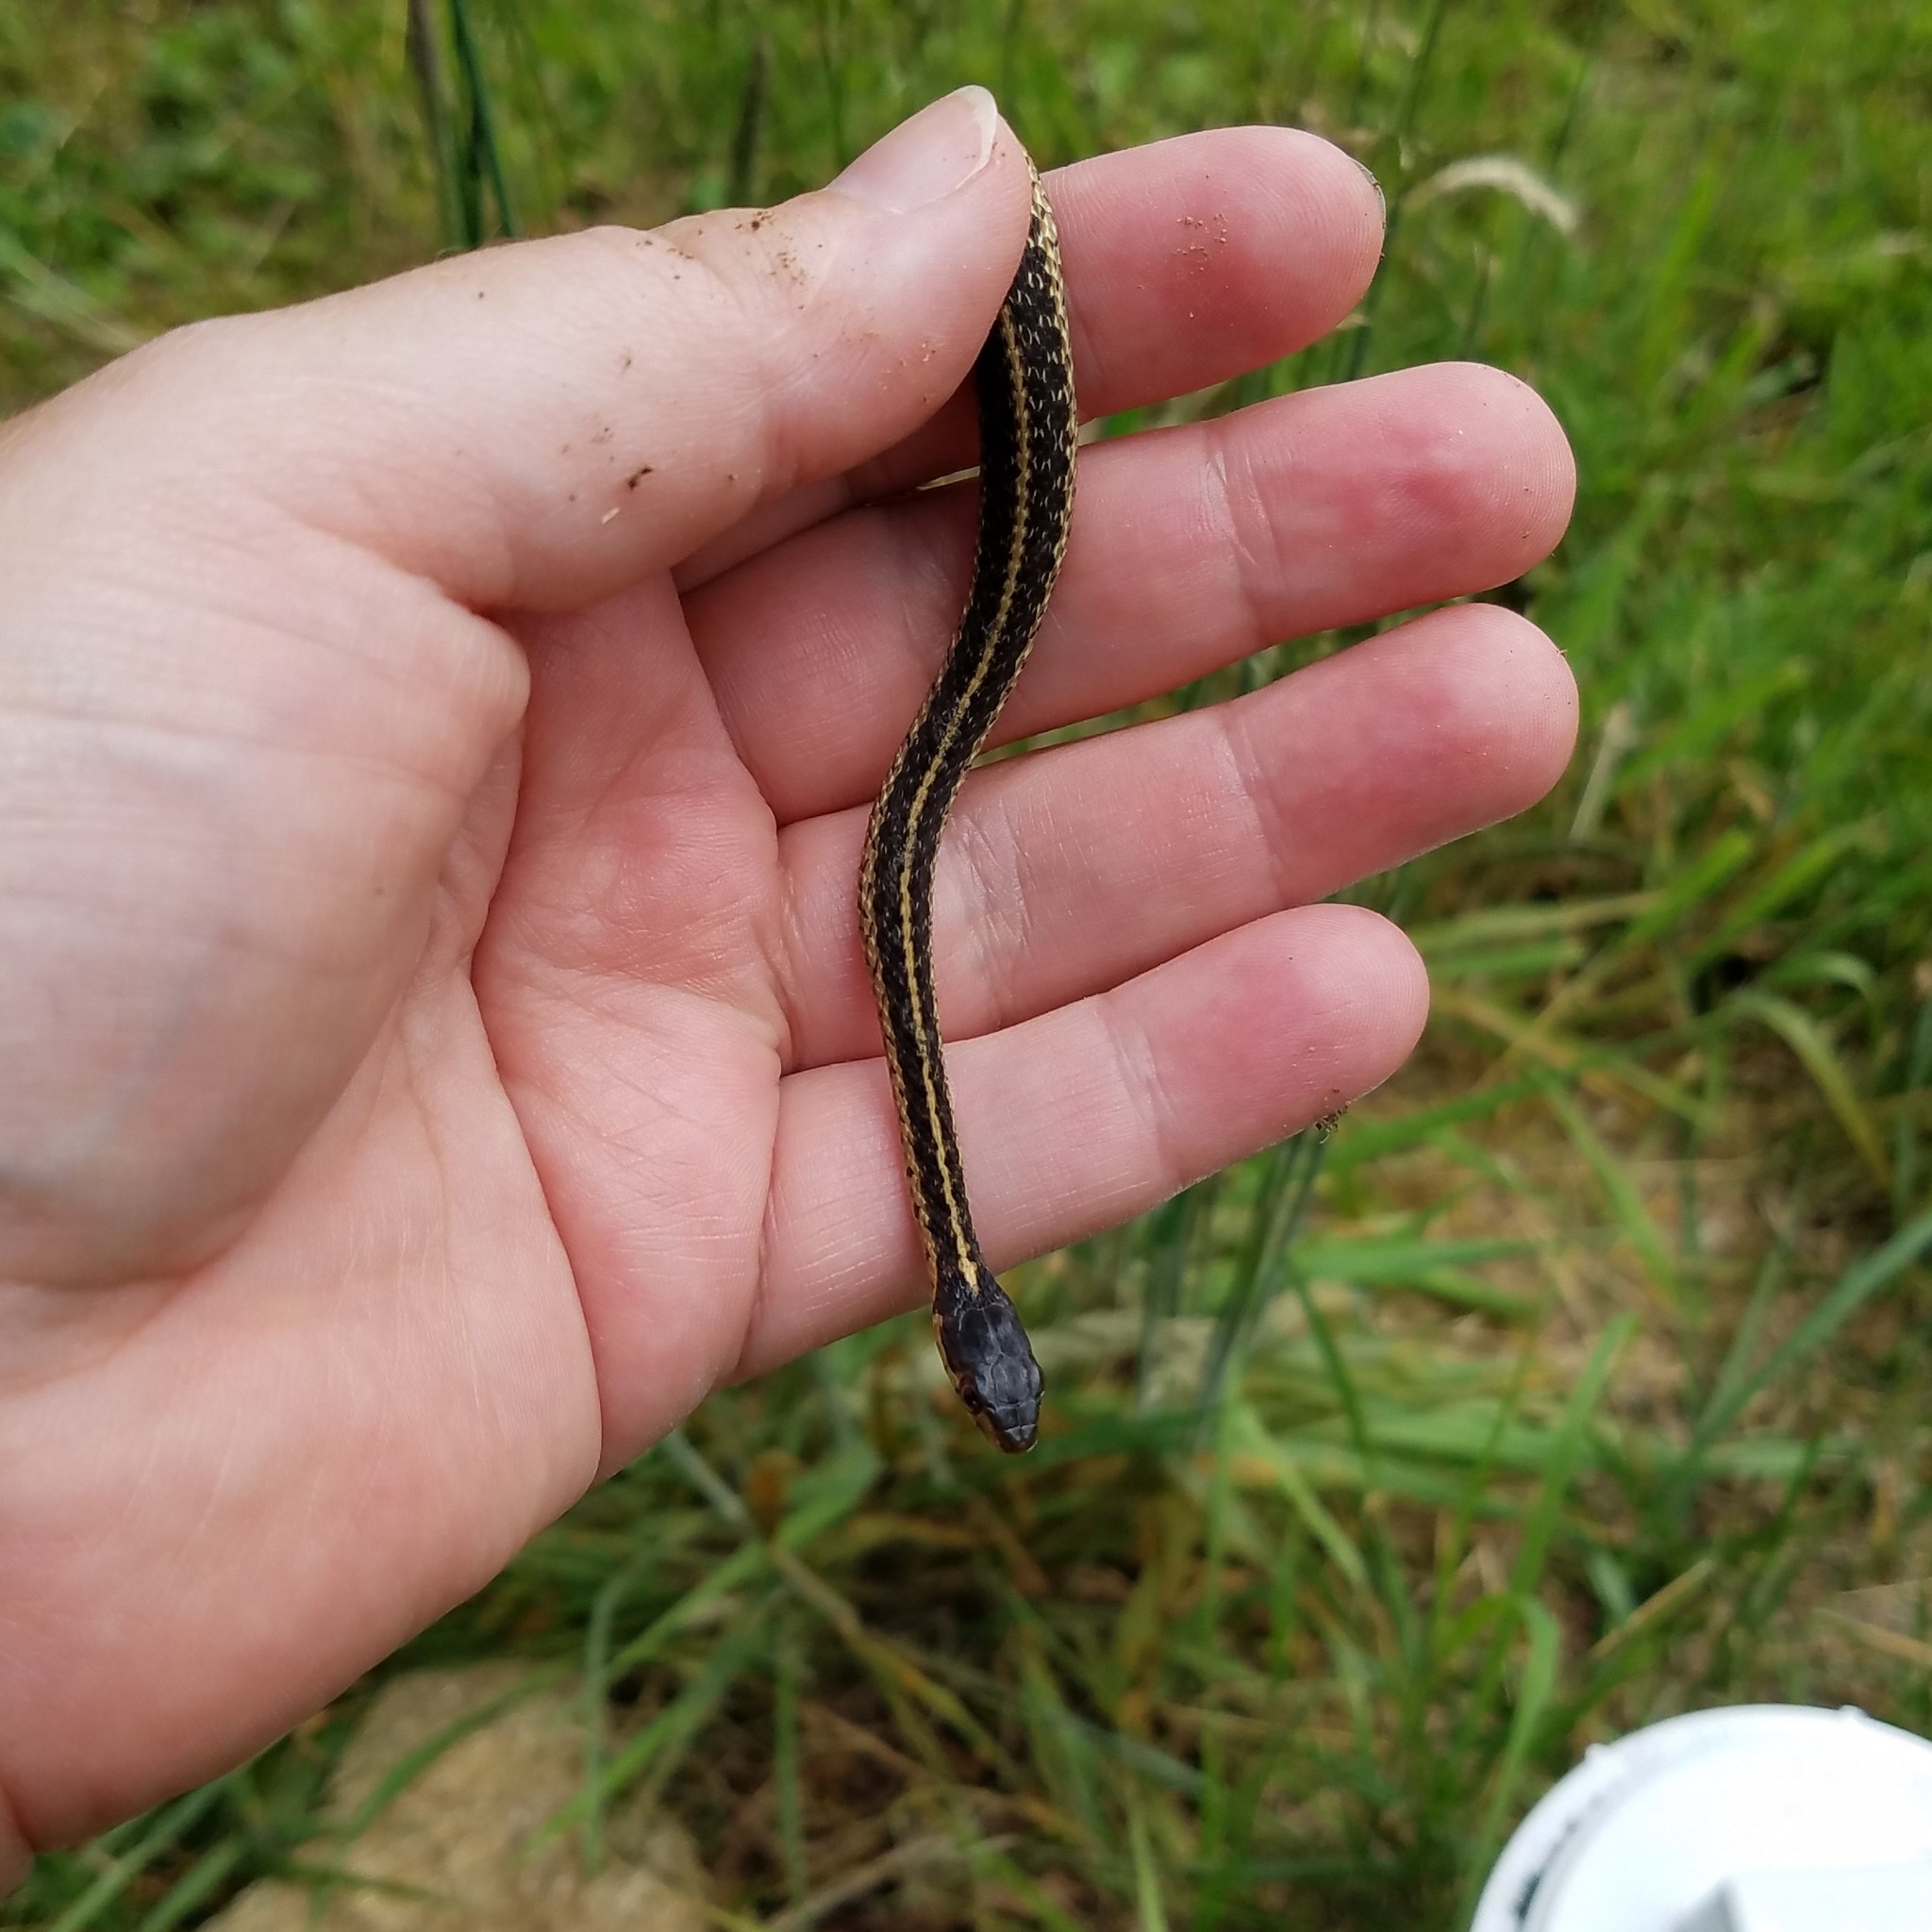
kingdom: Animalia
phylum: Chordata
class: Squamata
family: Colubridae
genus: Thamnophis
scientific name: Thamnophis sirtalis
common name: Common garter snake
